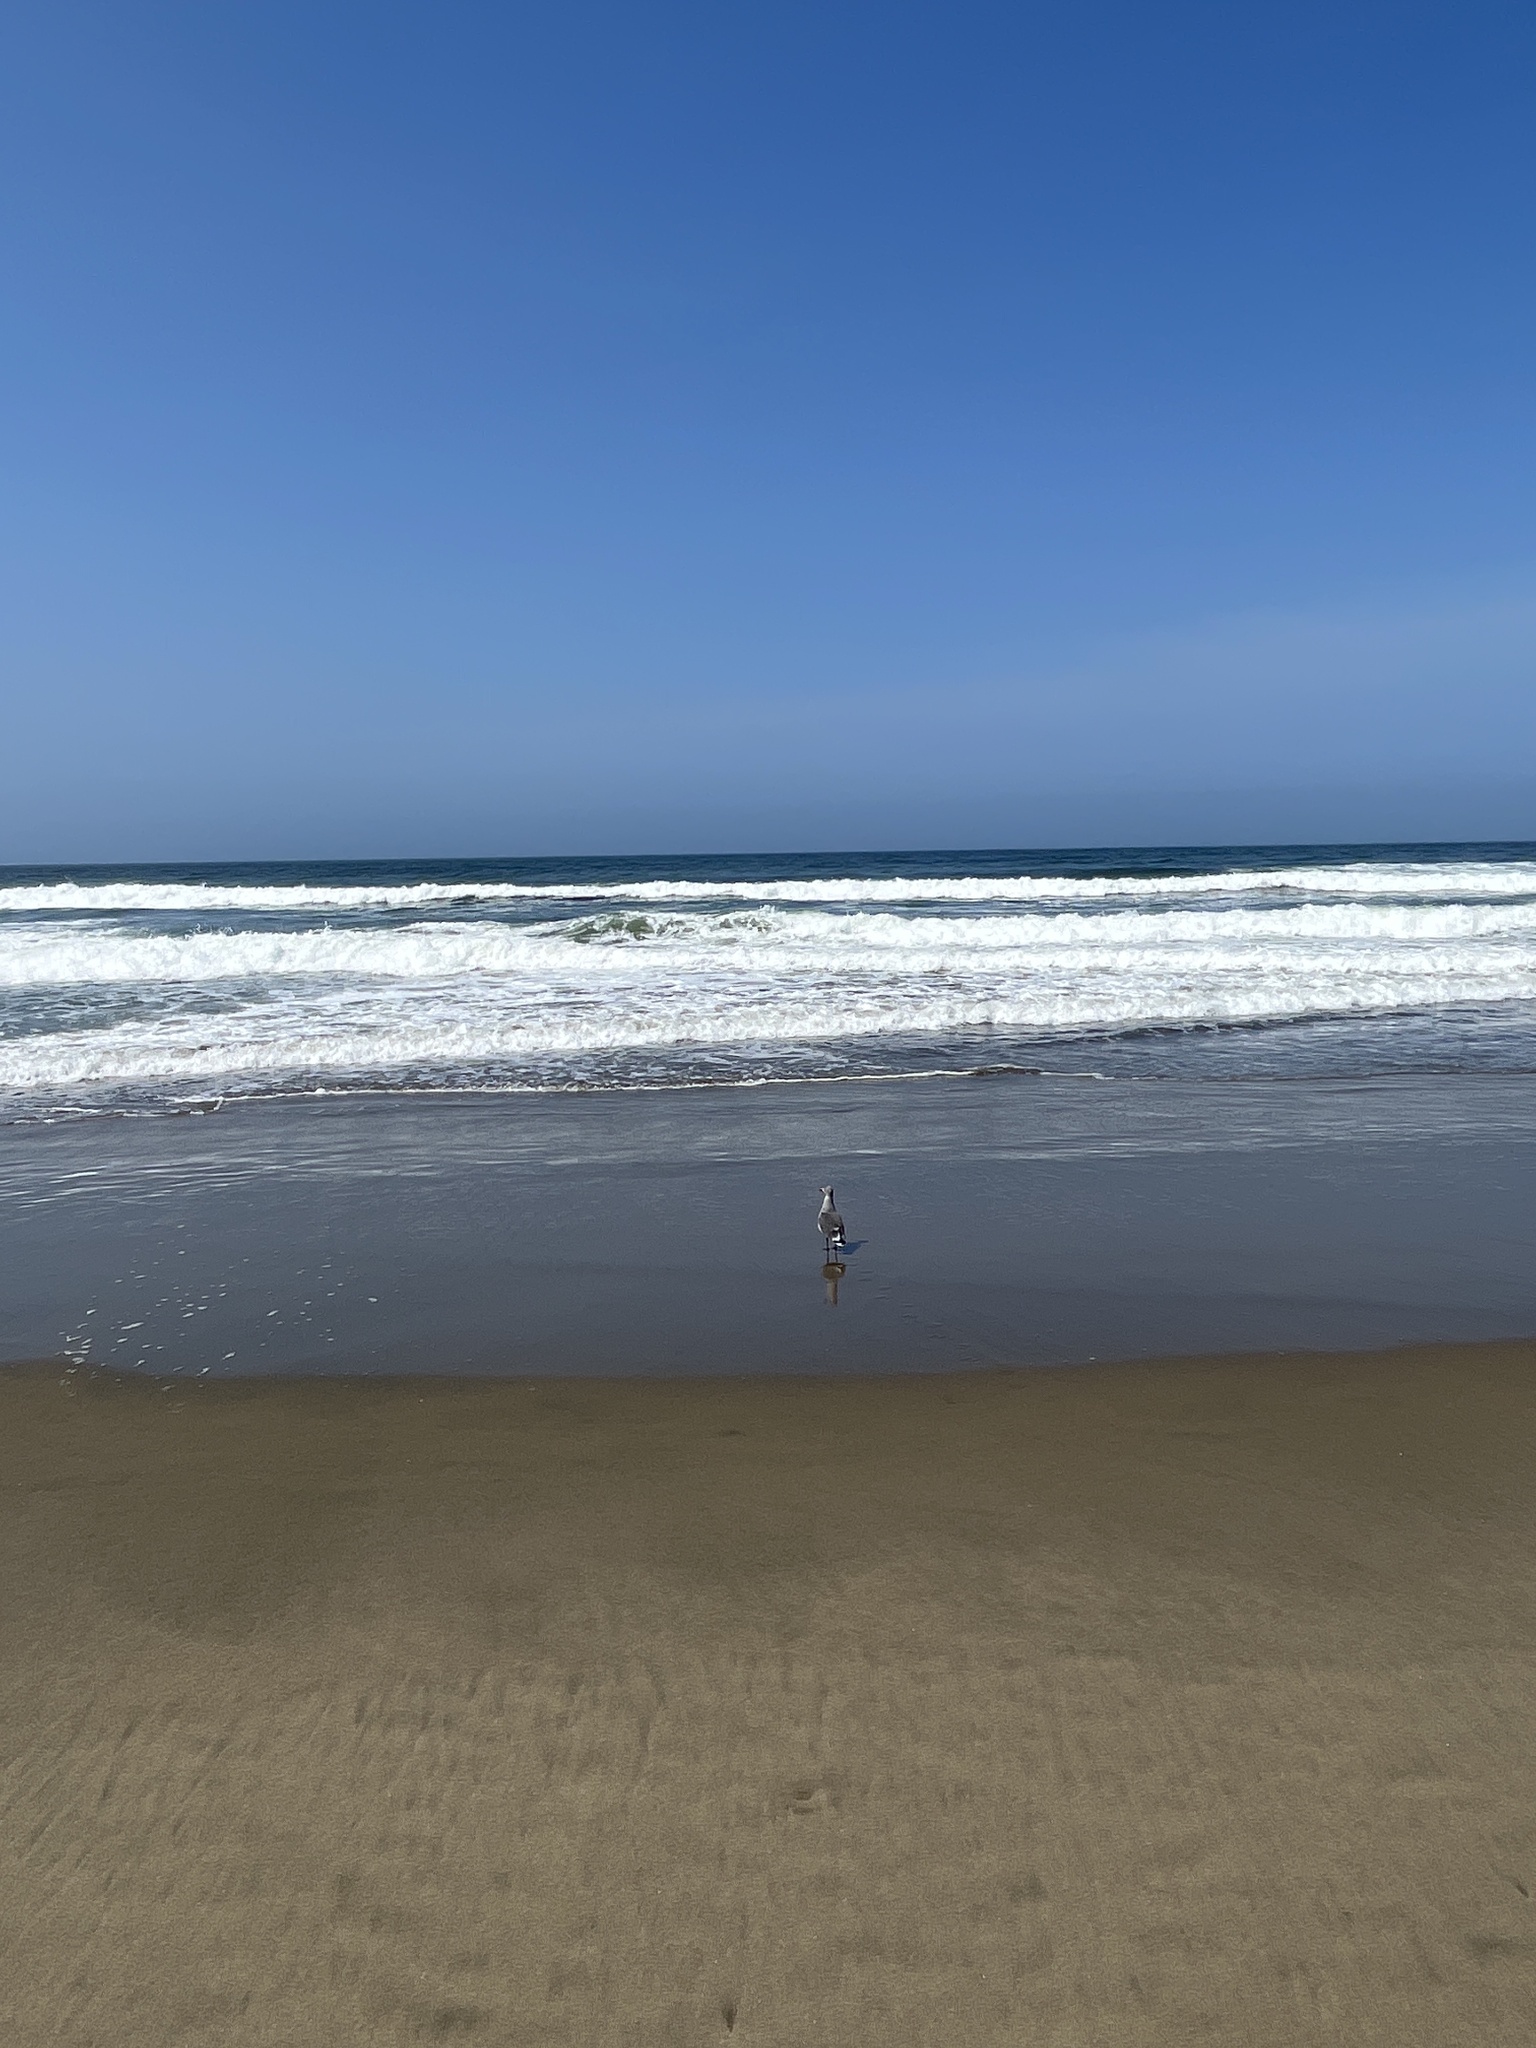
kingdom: Animalia
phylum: Chordata
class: Aves
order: Charadriiformes
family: Laridae
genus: Larus
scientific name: Larus heermanni
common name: Heermann's gull
